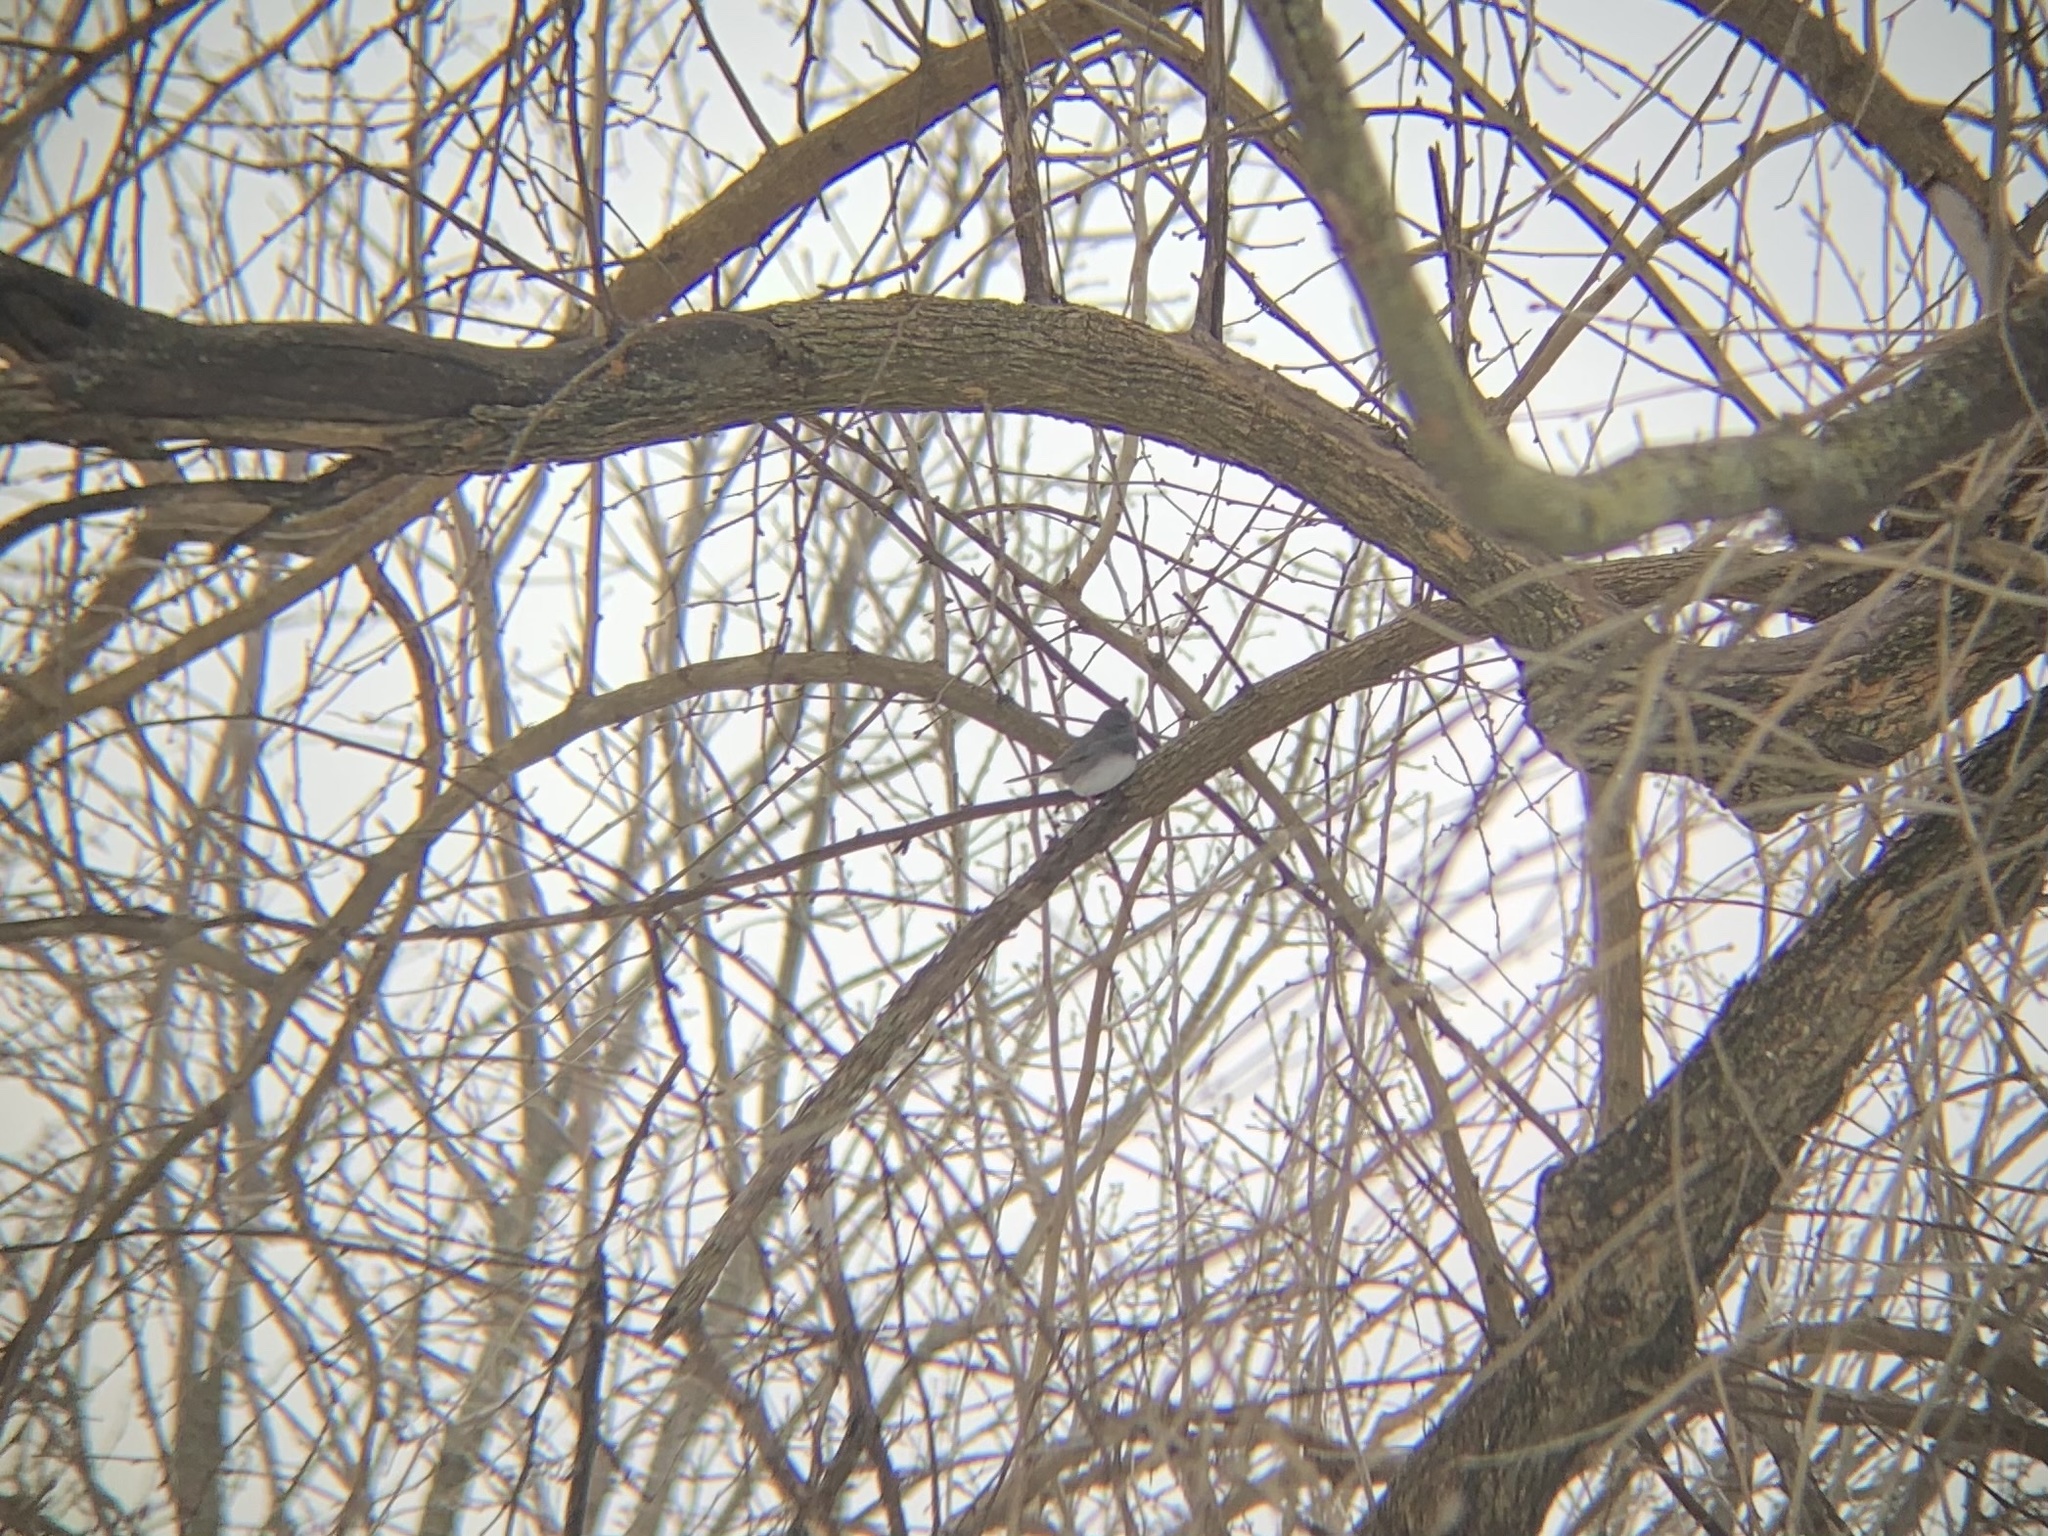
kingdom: Animalia
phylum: Chordata
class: Aves
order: Passeriformes
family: Passerellidae
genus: Junco
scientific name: Junco hyemalis
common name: Dark-eyed junco
